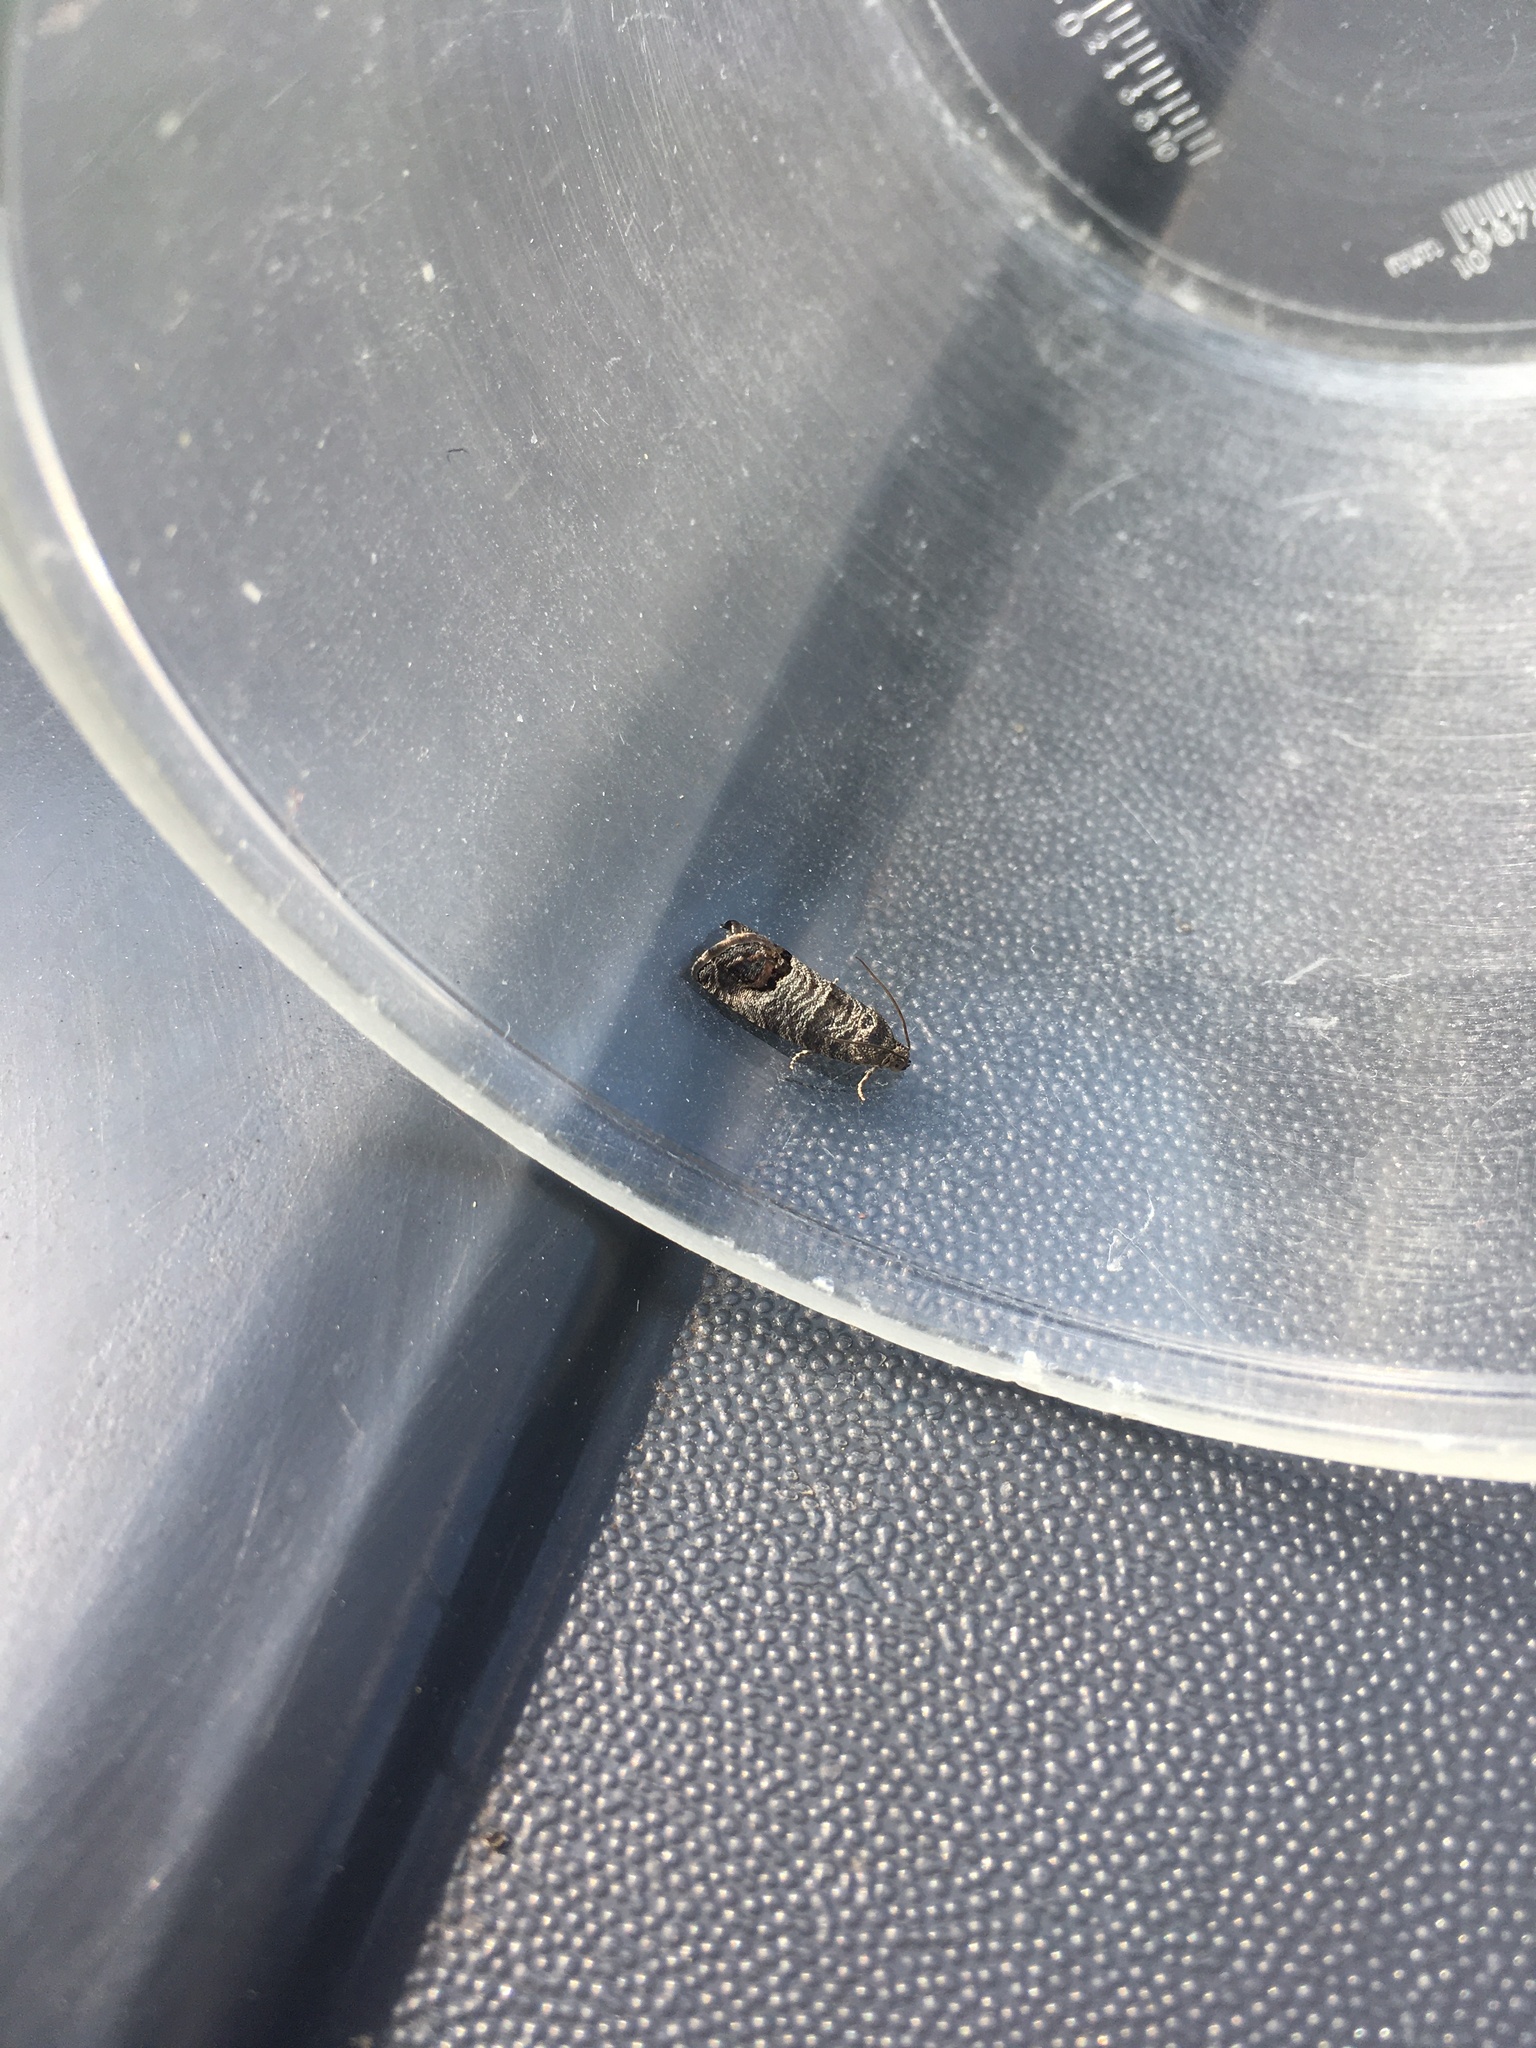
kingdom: Animalia
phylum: Arthropoda
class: Insecta
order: Lepidoptera
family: Tortricidae
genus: Cydia
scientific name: Cydia pomonella
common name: Codling moth
